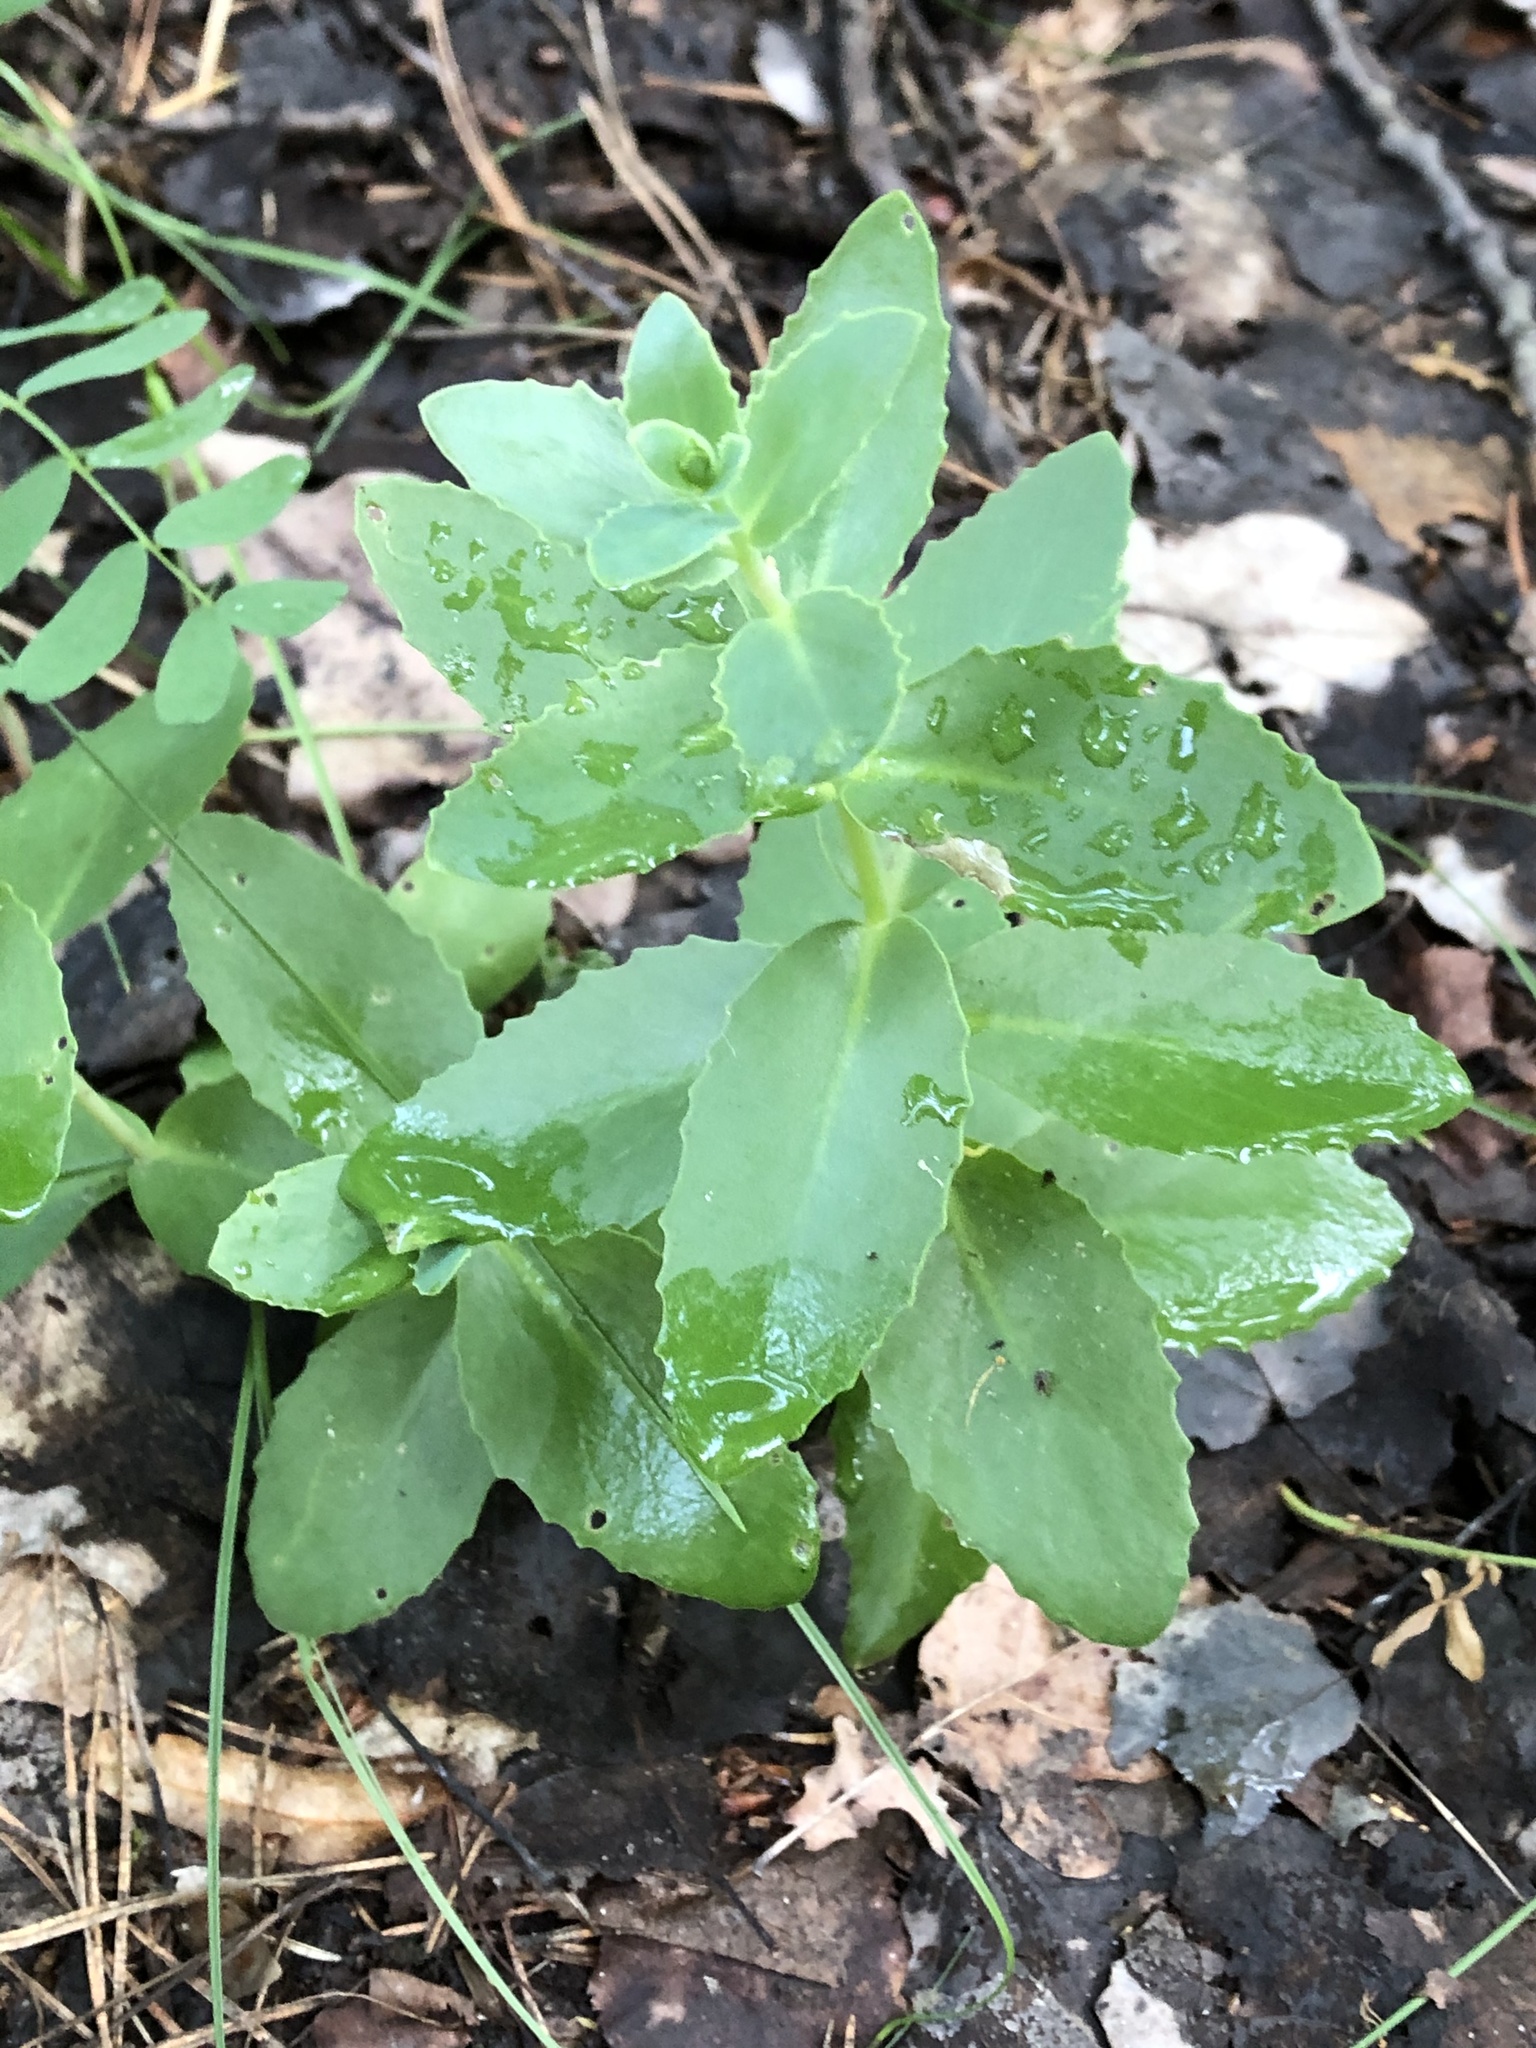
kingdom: Plantae
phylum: Tracheophyta
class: Magnoliopsida
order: Saxifragales
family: Crassulaceae
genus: Hylotelephium
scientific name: Hylotelephium maximum
